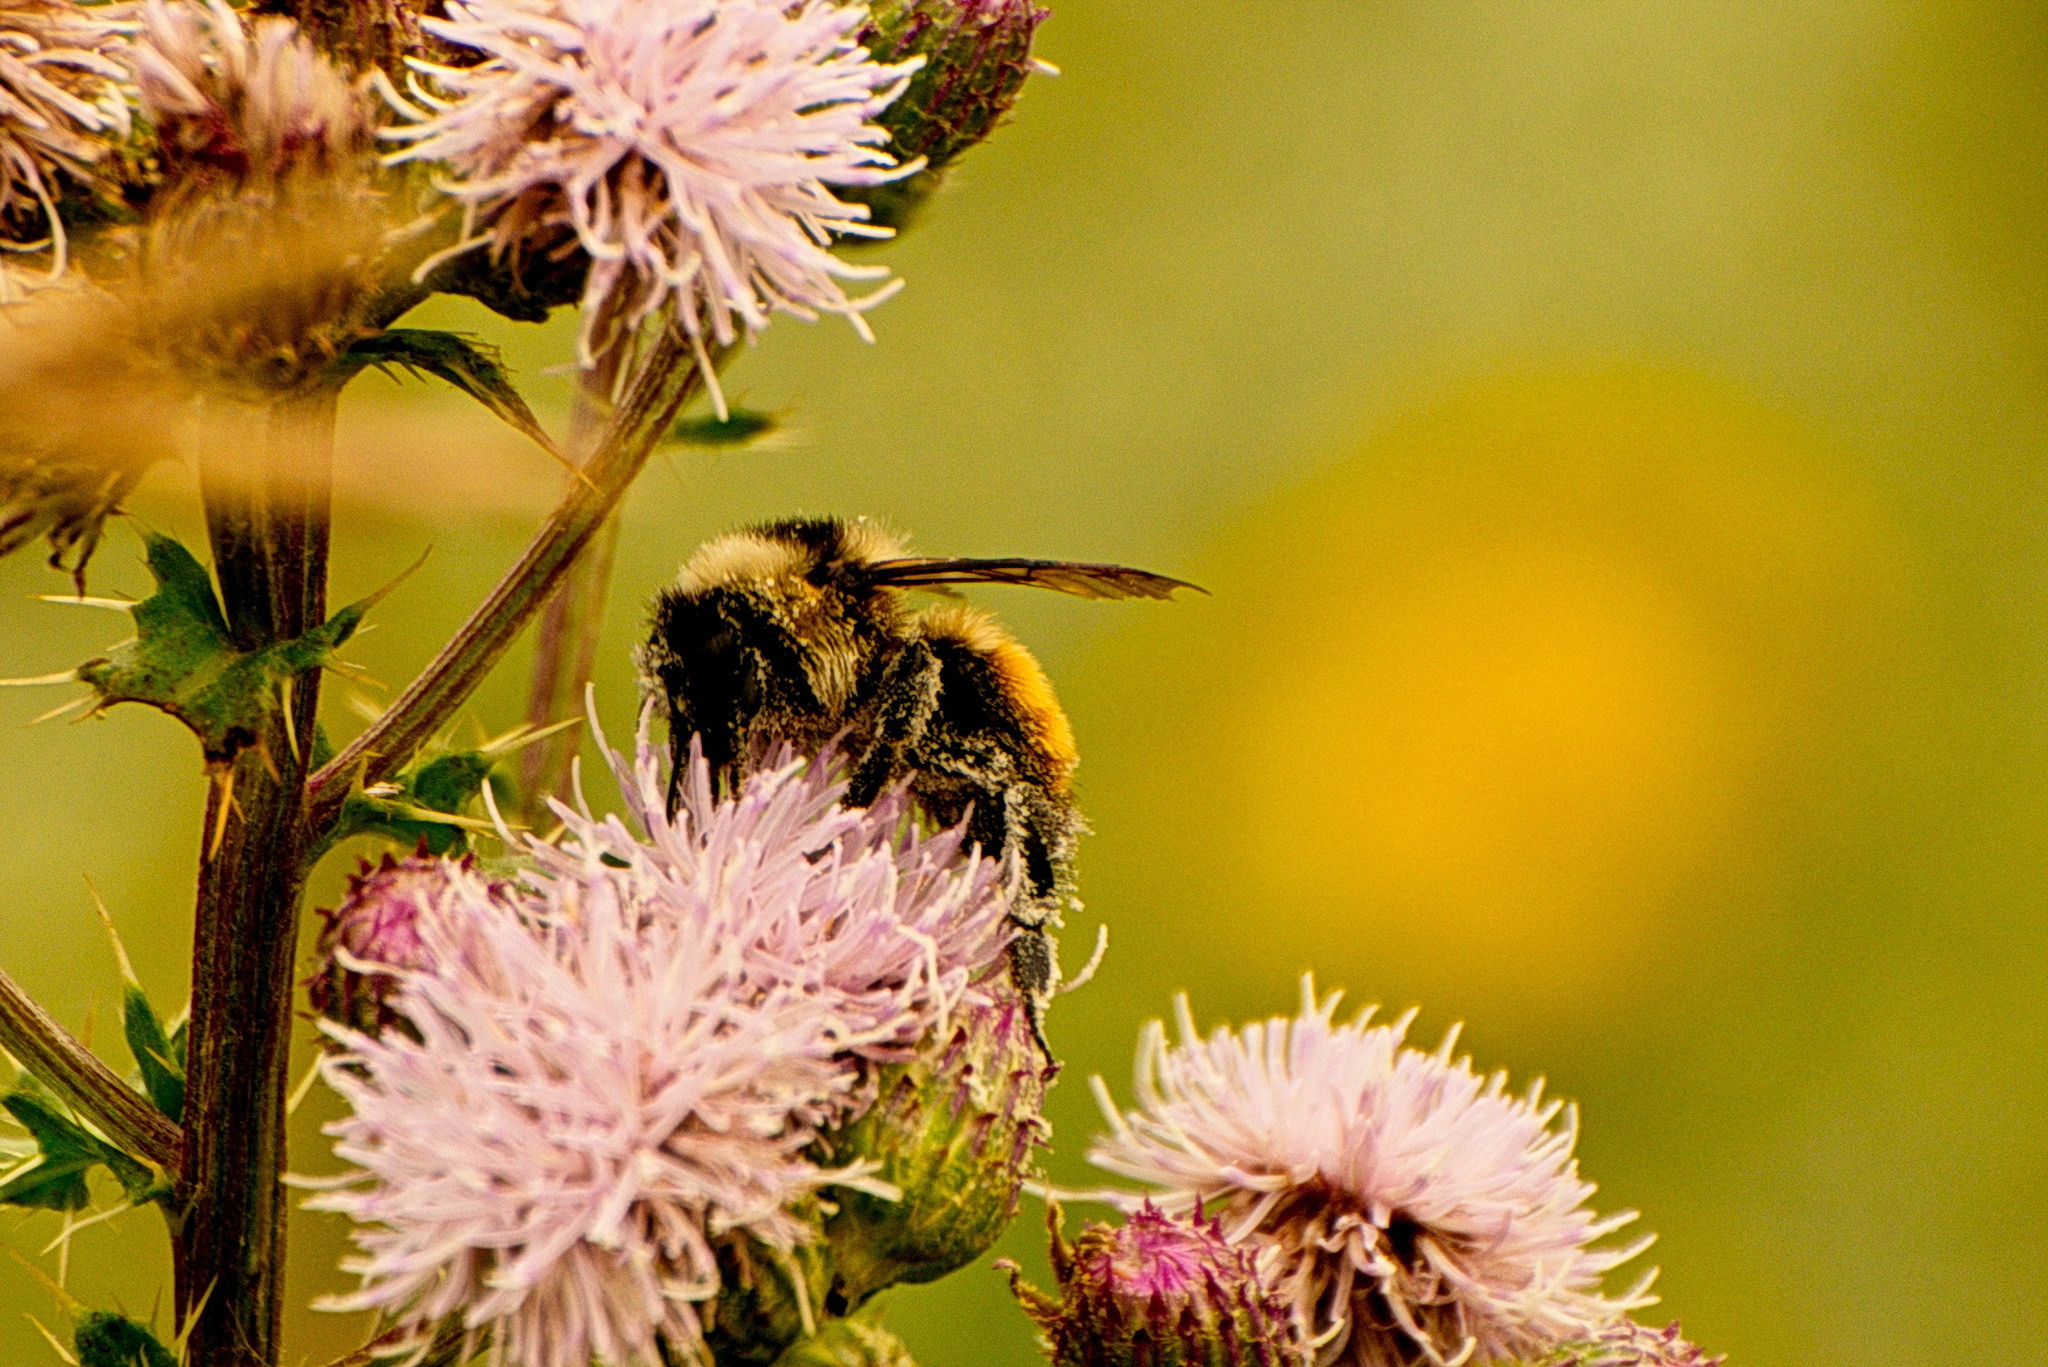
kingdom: Animalia
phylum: Arthropoda
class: Insecta
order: Hymenoptera
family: Apidae
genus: Bombus
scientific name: Bombus rufocinctus
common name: Red-belted bumble bee
